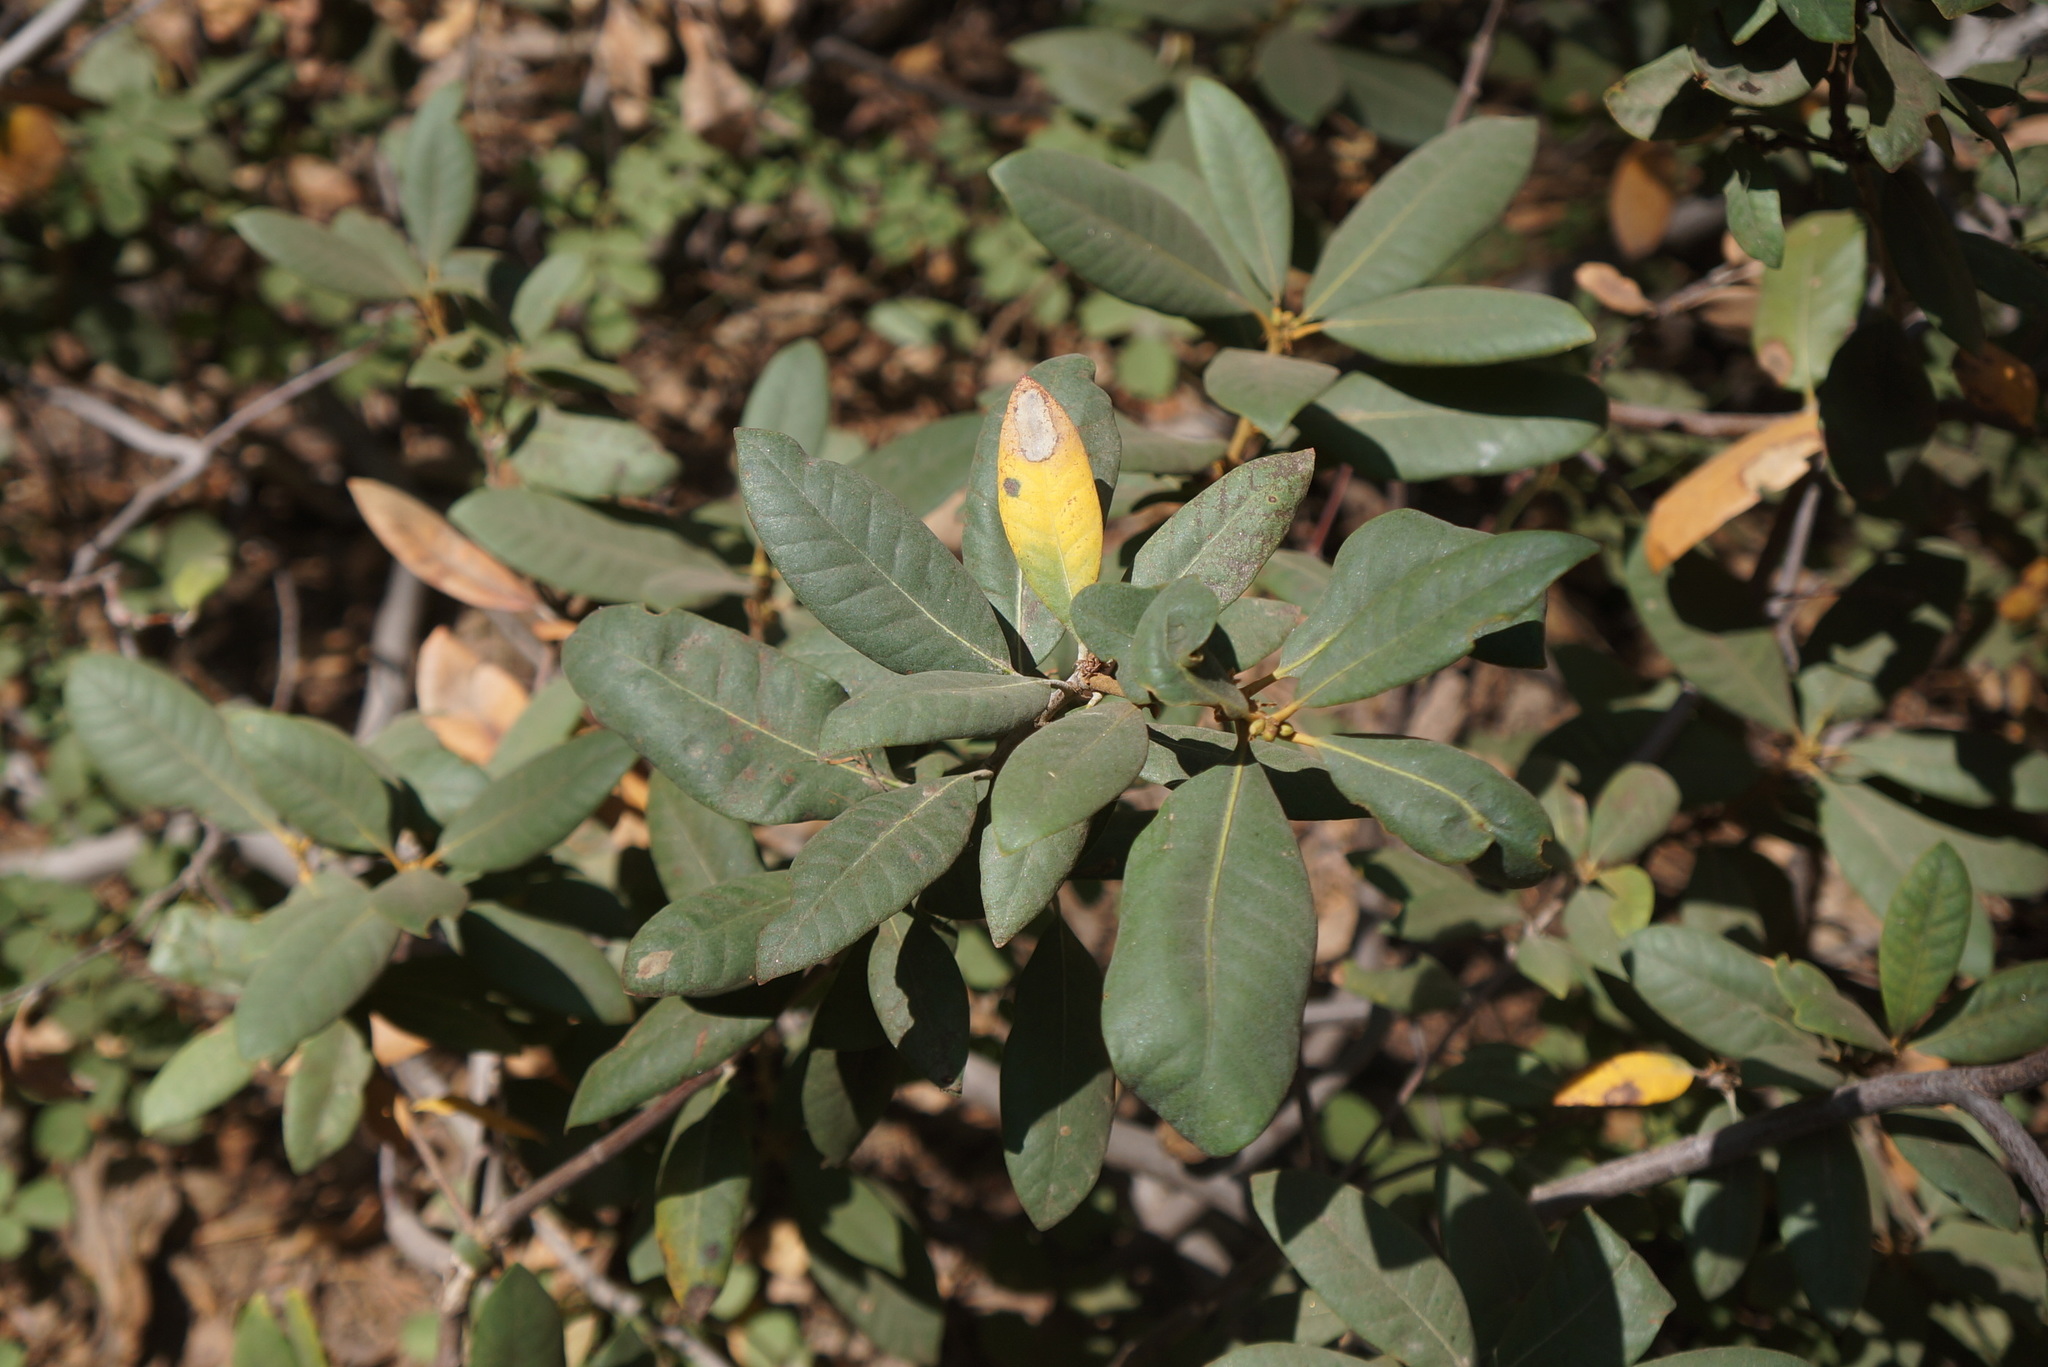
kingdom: Plantae
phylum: Tracheophyta
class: Magnoliopsida
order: Fagales
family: Fagaceae
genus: Chrysolepis
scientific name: Chrysolepis sempervirens
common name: Bush chinquapin
